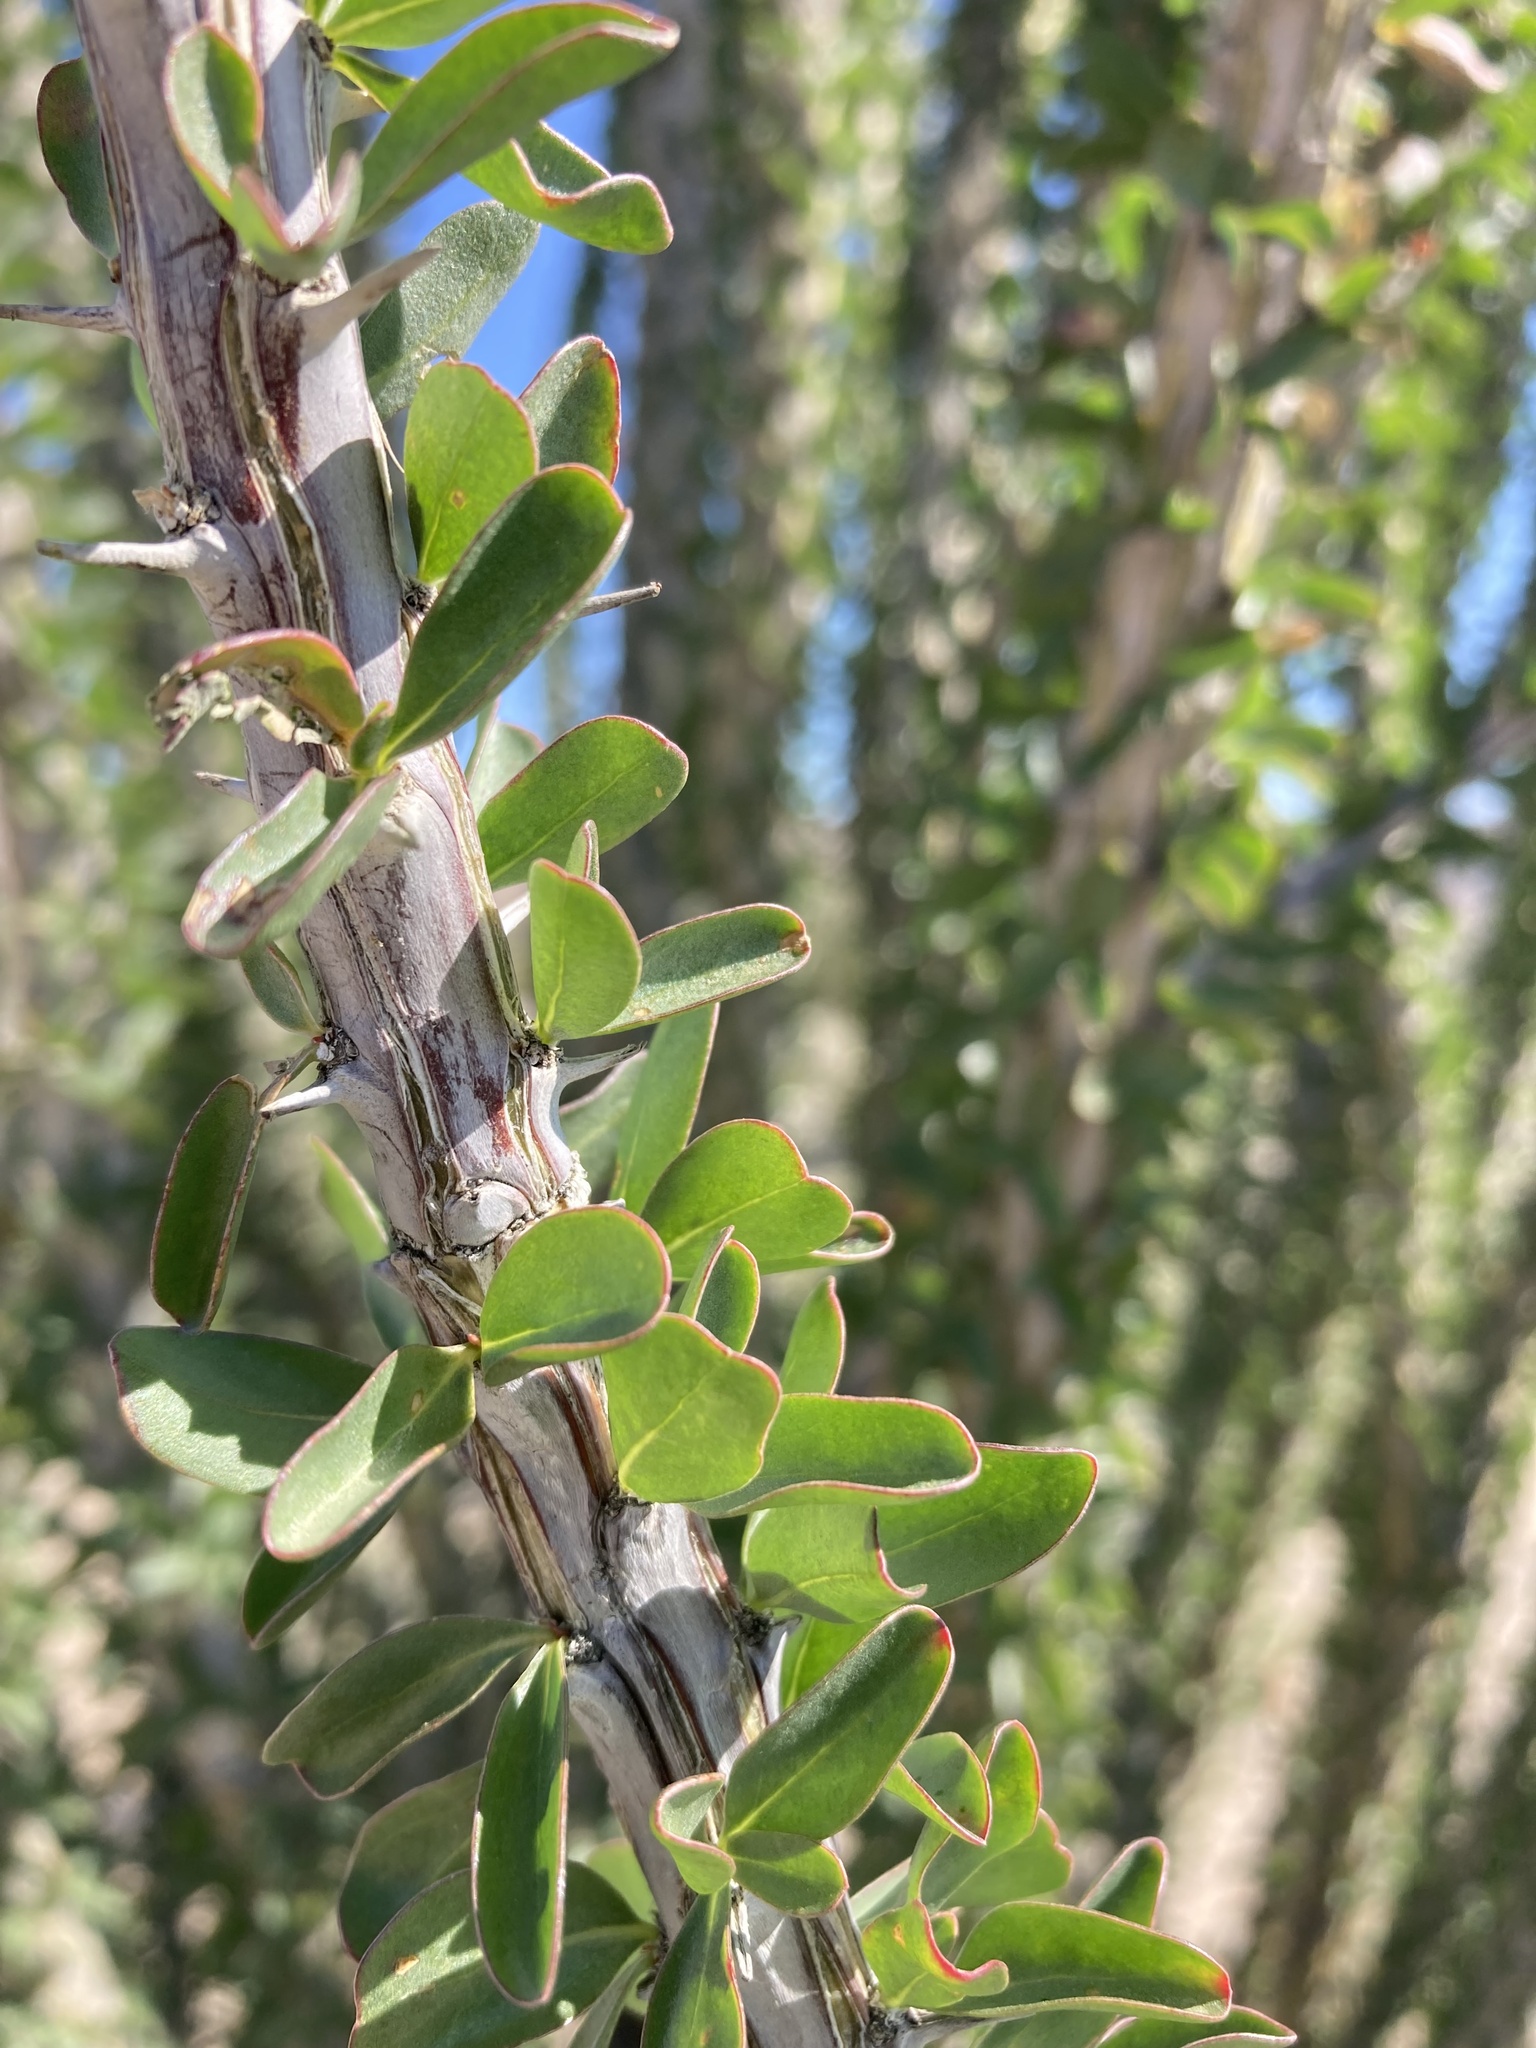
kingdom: Plantae
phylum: Tracheophyta
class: Magnoliopsida
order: Ericales
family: Fouquieriaceae
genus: Fouquieria
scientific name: Fouquieria splendens
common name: Vine-cactus
